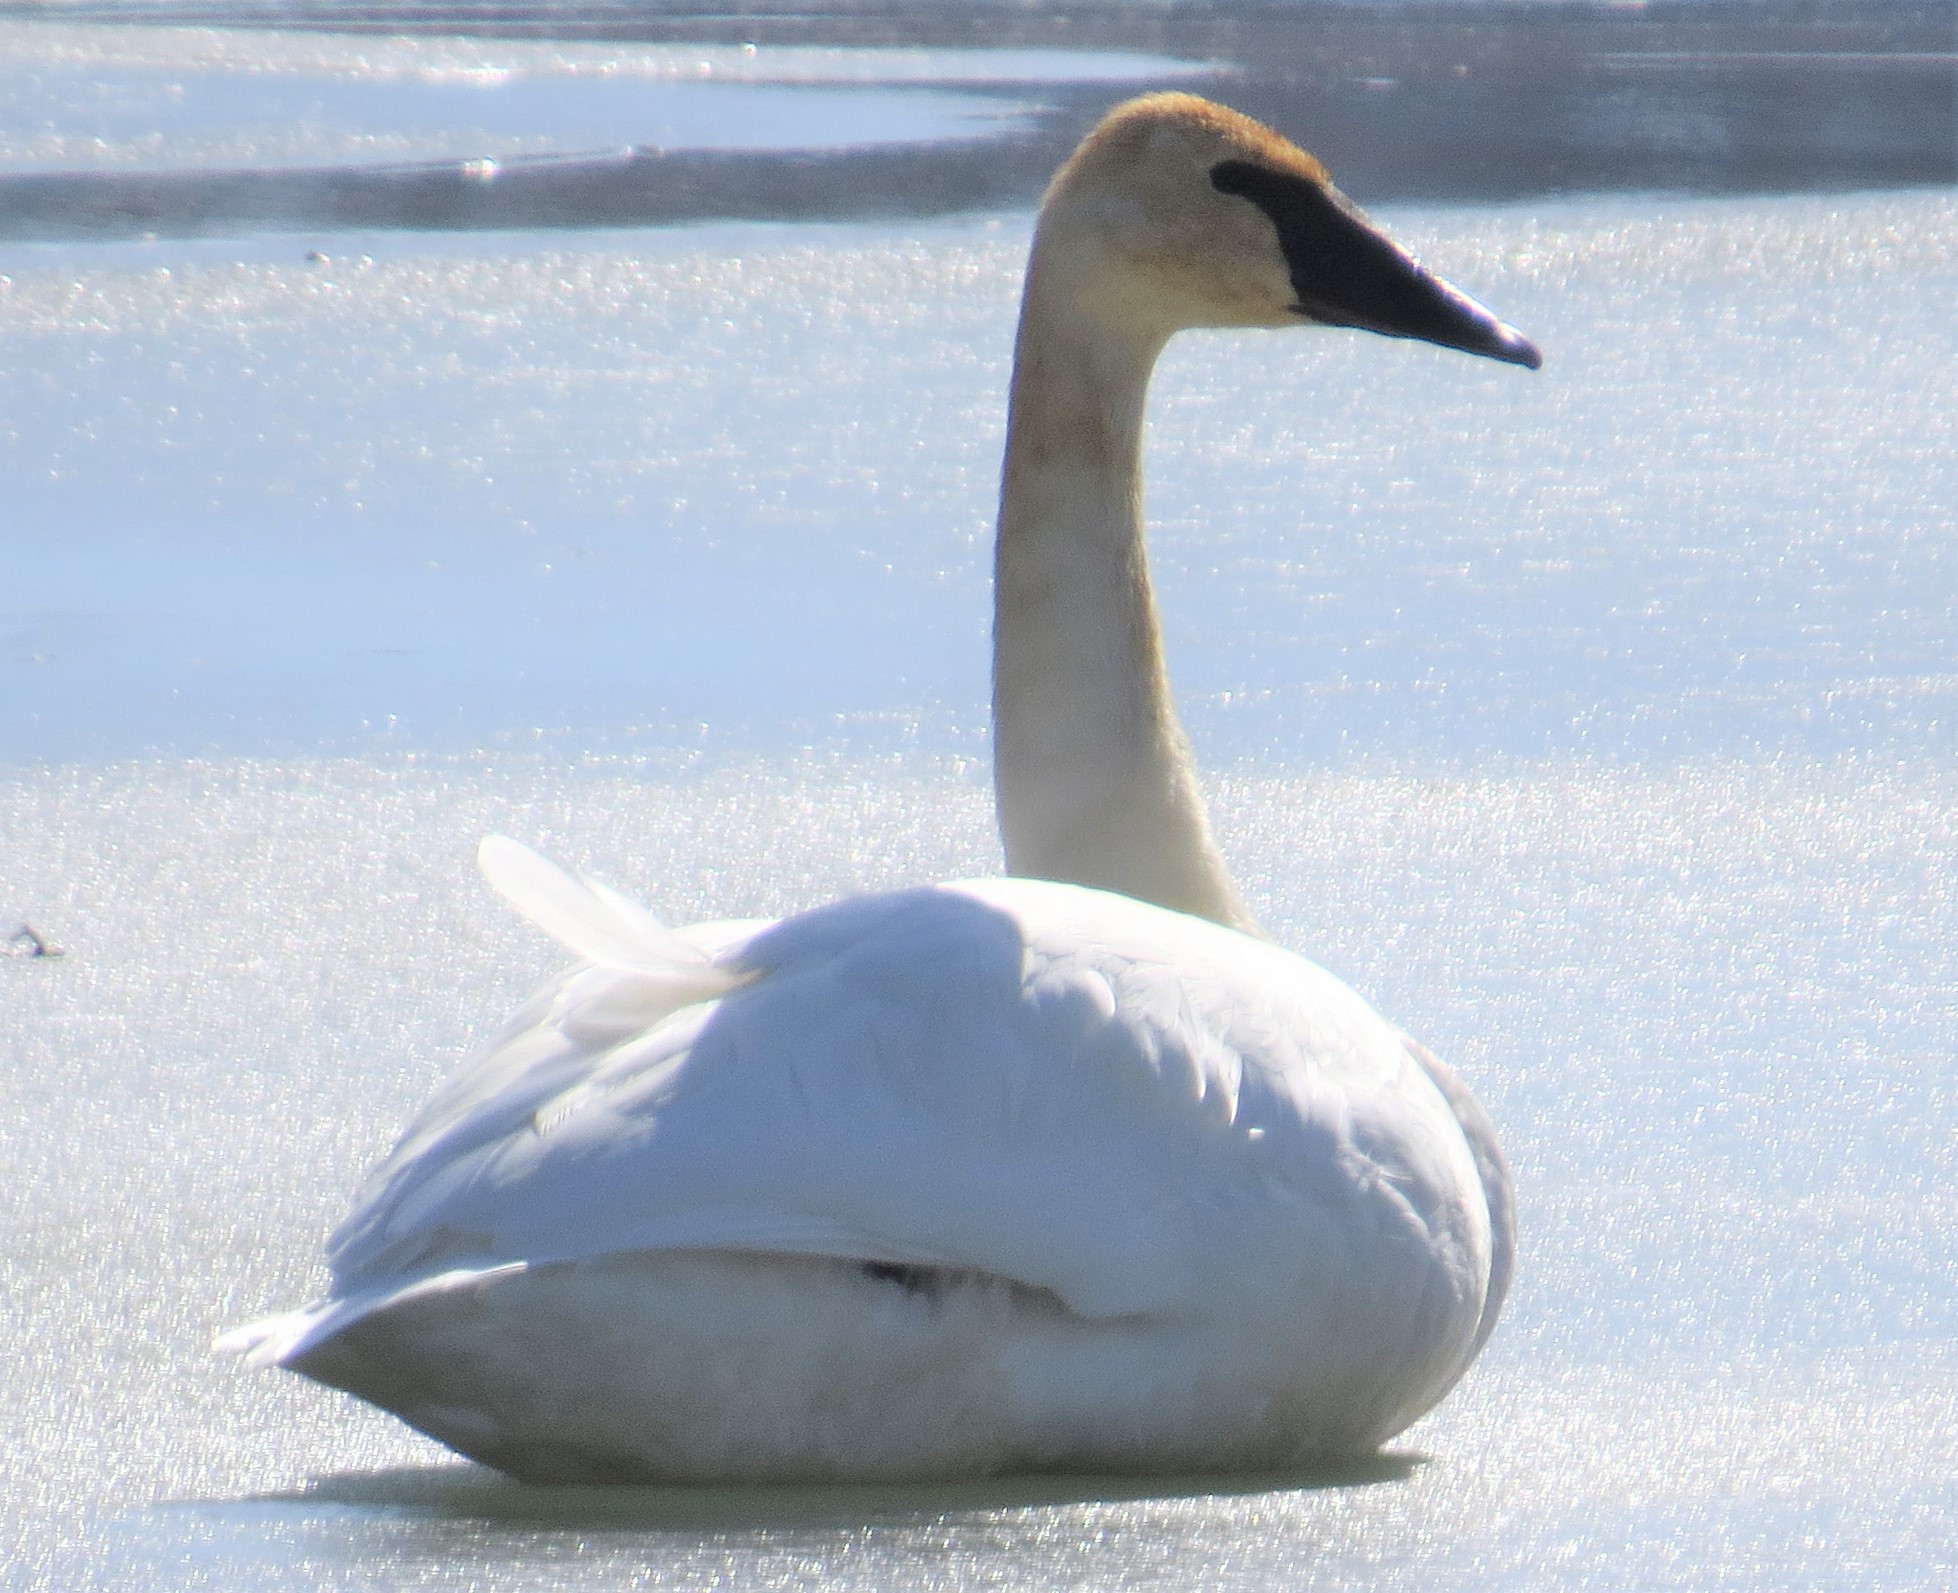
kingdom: Animalia
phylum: Chordata
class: Aves
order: Anseriformes
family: Anatidae
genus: Cygnus
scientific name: Cygnus buccinator
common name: Trumpeter swan
